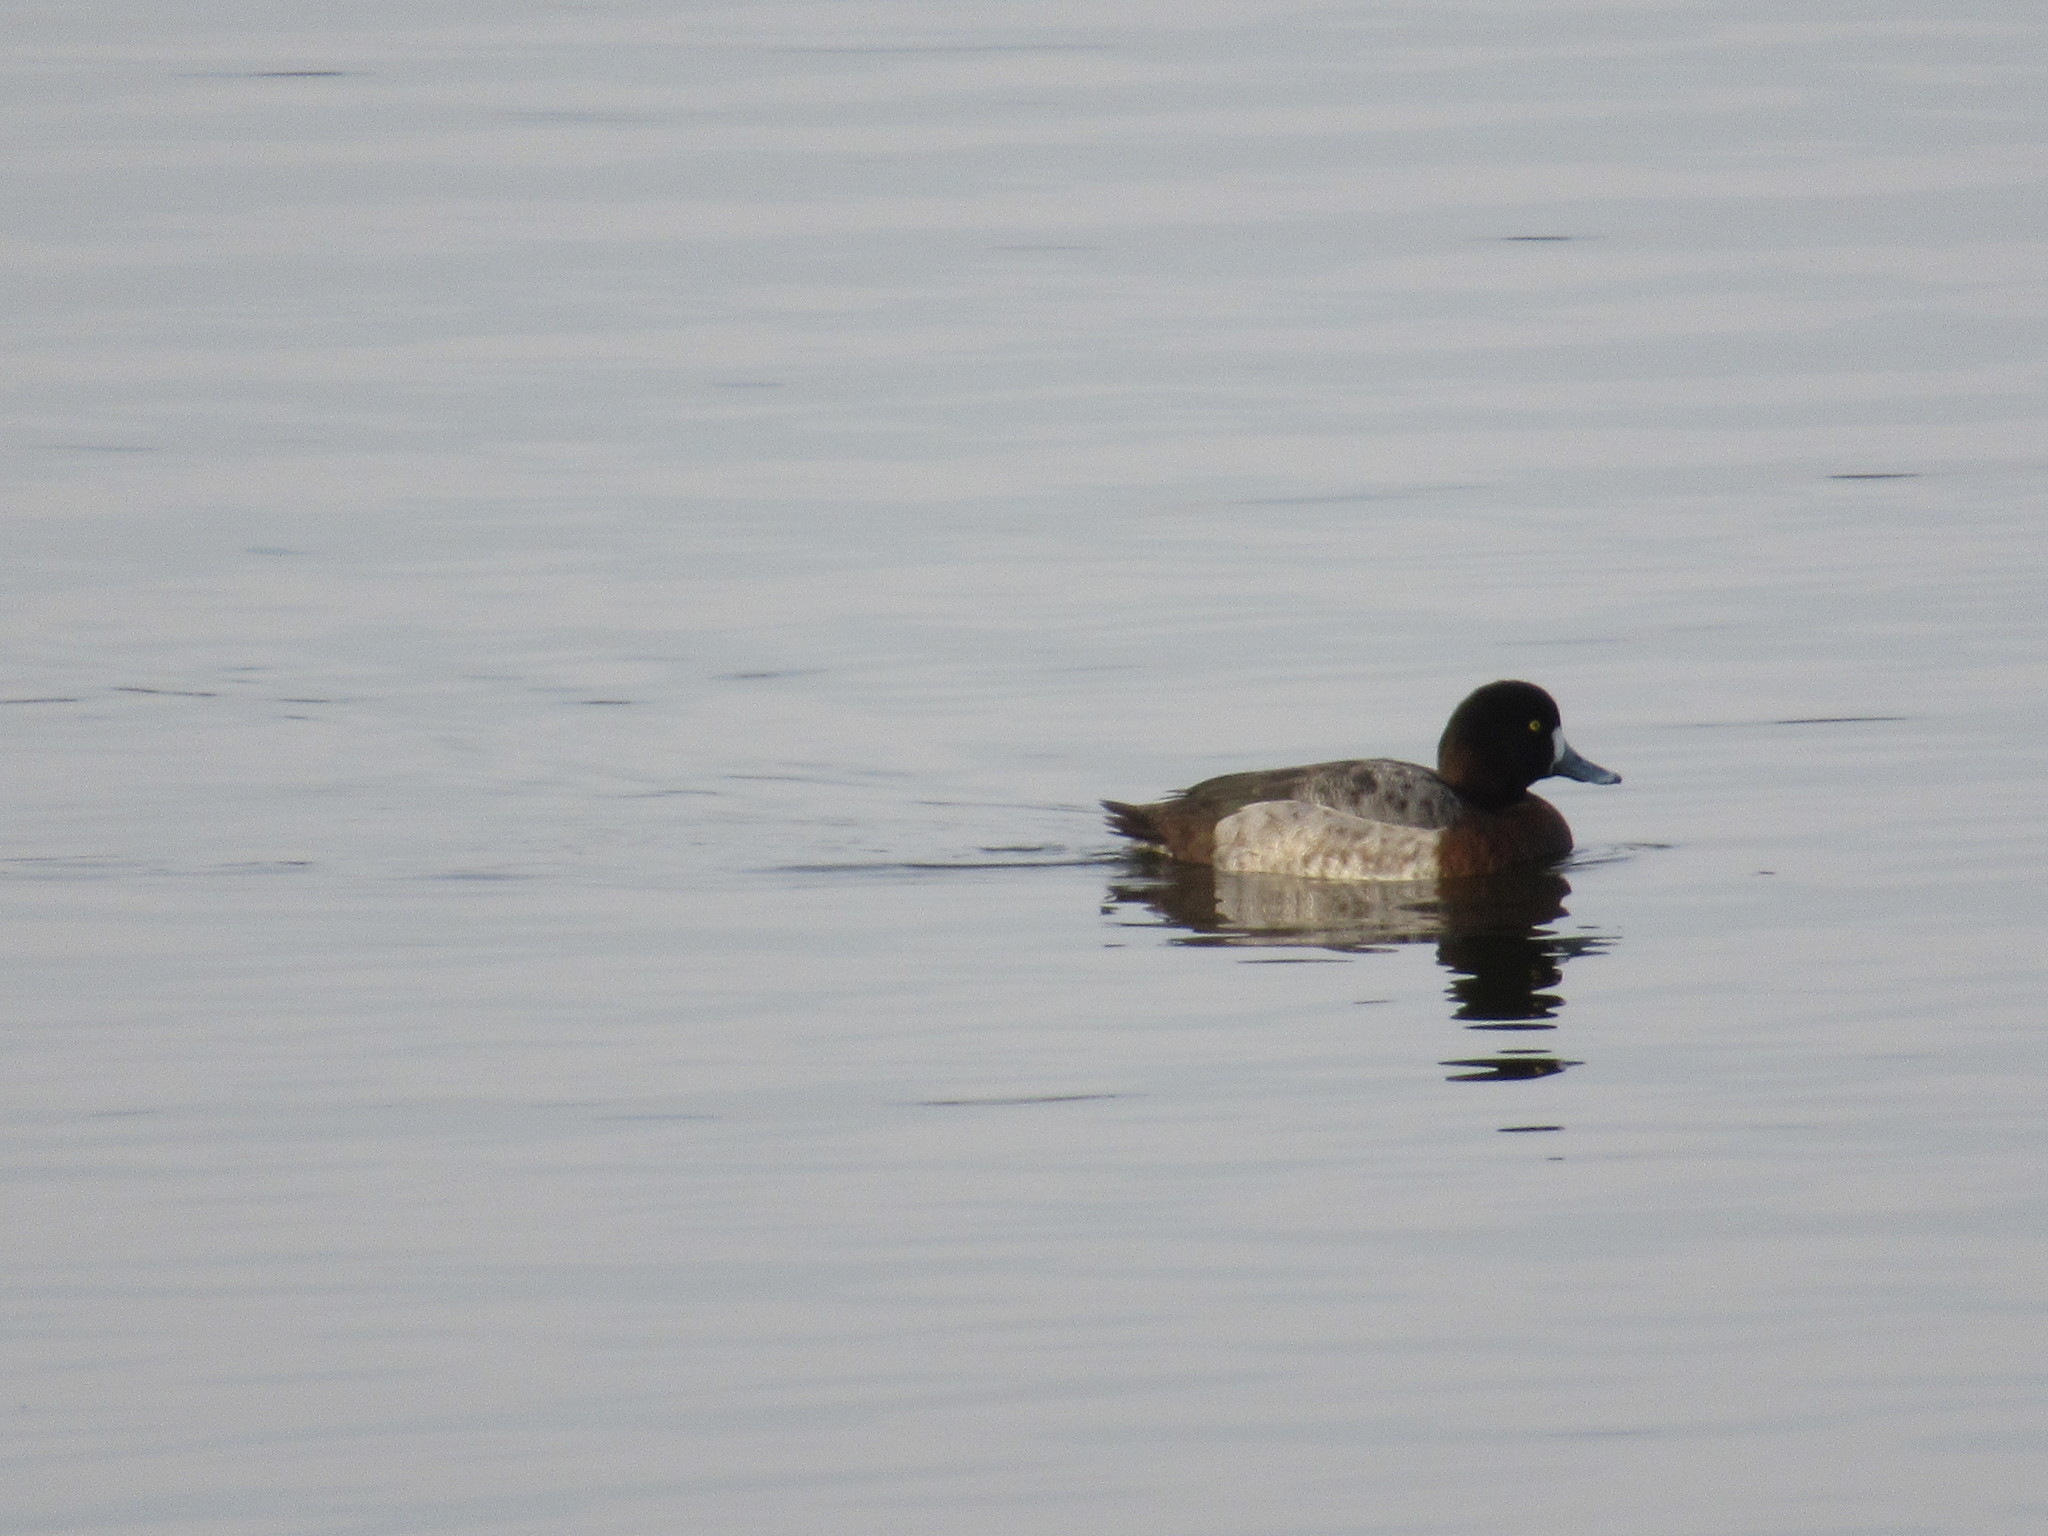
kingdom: Animalia
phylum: Chordata
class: Aves
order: Anseriformes
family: Anatidae
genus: Aythya
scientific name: Aythya marila
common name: Greater scaup
